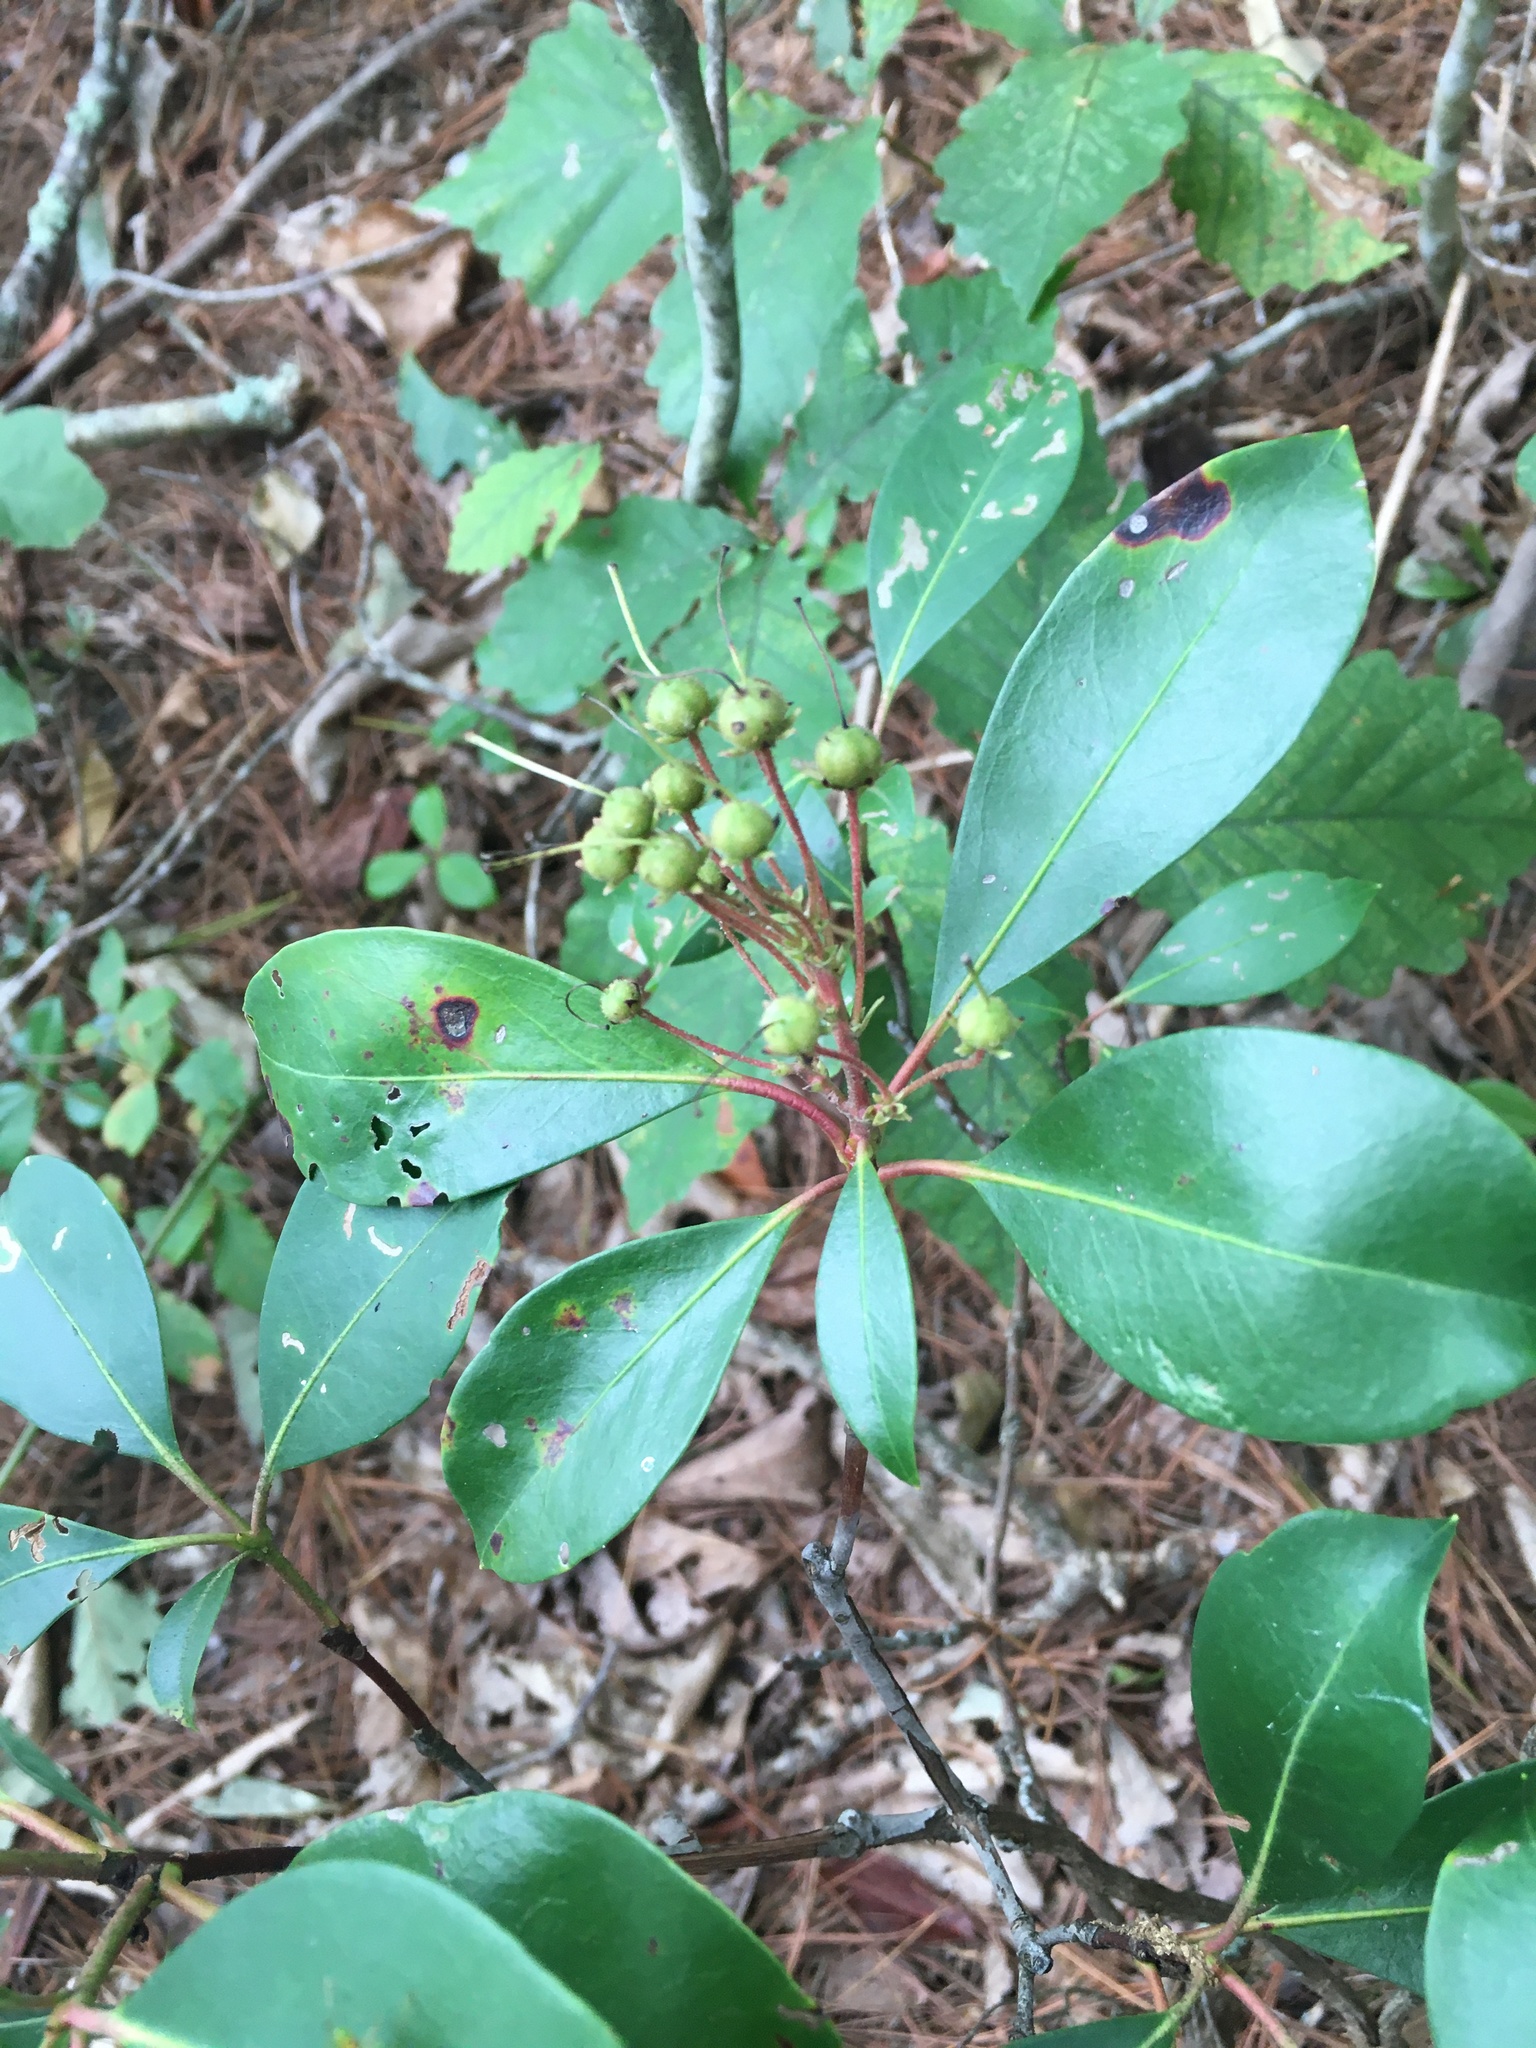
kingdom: Plantae
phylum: Tracheophyta
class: Magnoliopsida
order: Ericales
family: Ericaceae
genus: Kalmia
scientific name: Kalmia latifolia
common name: Mountain-laurel
